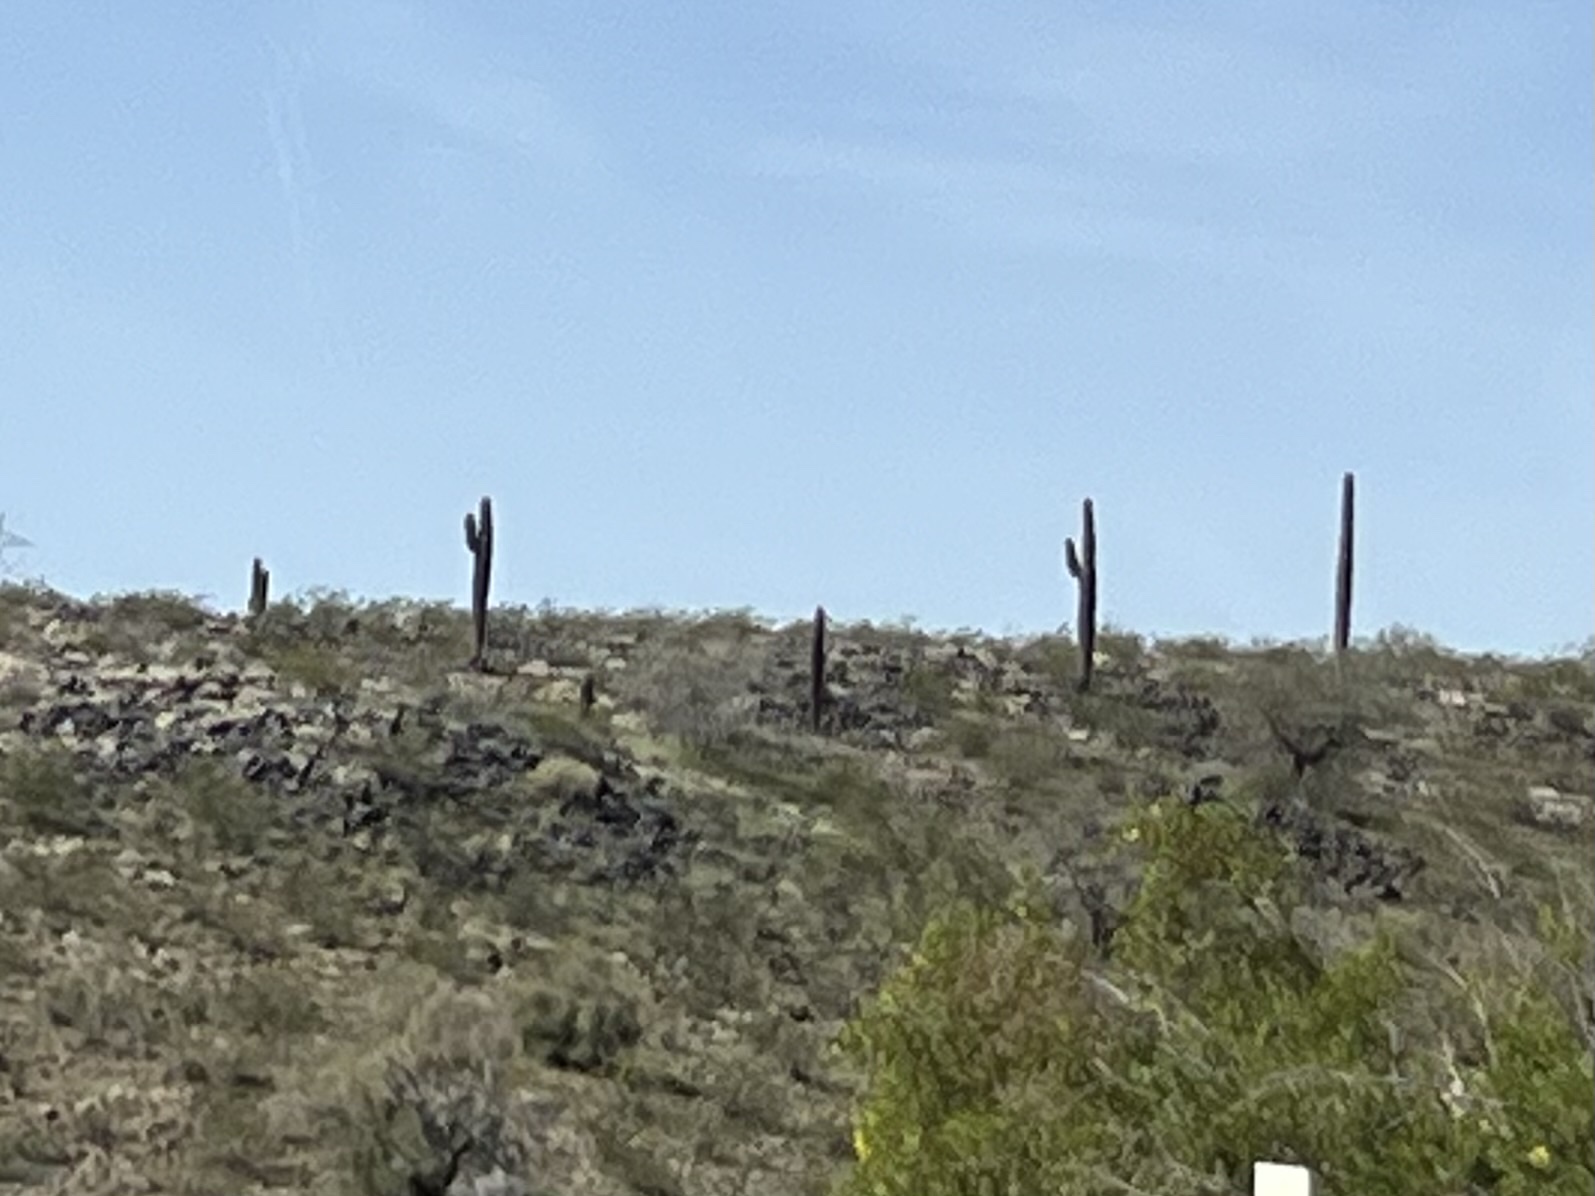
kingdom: Plantae
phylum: Tracheophyta
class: Magnoliopsida
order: Caryophyllales
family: Cactaceae
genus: Carnegiea
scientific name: Carnegiea gigantea
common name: Saguaro
